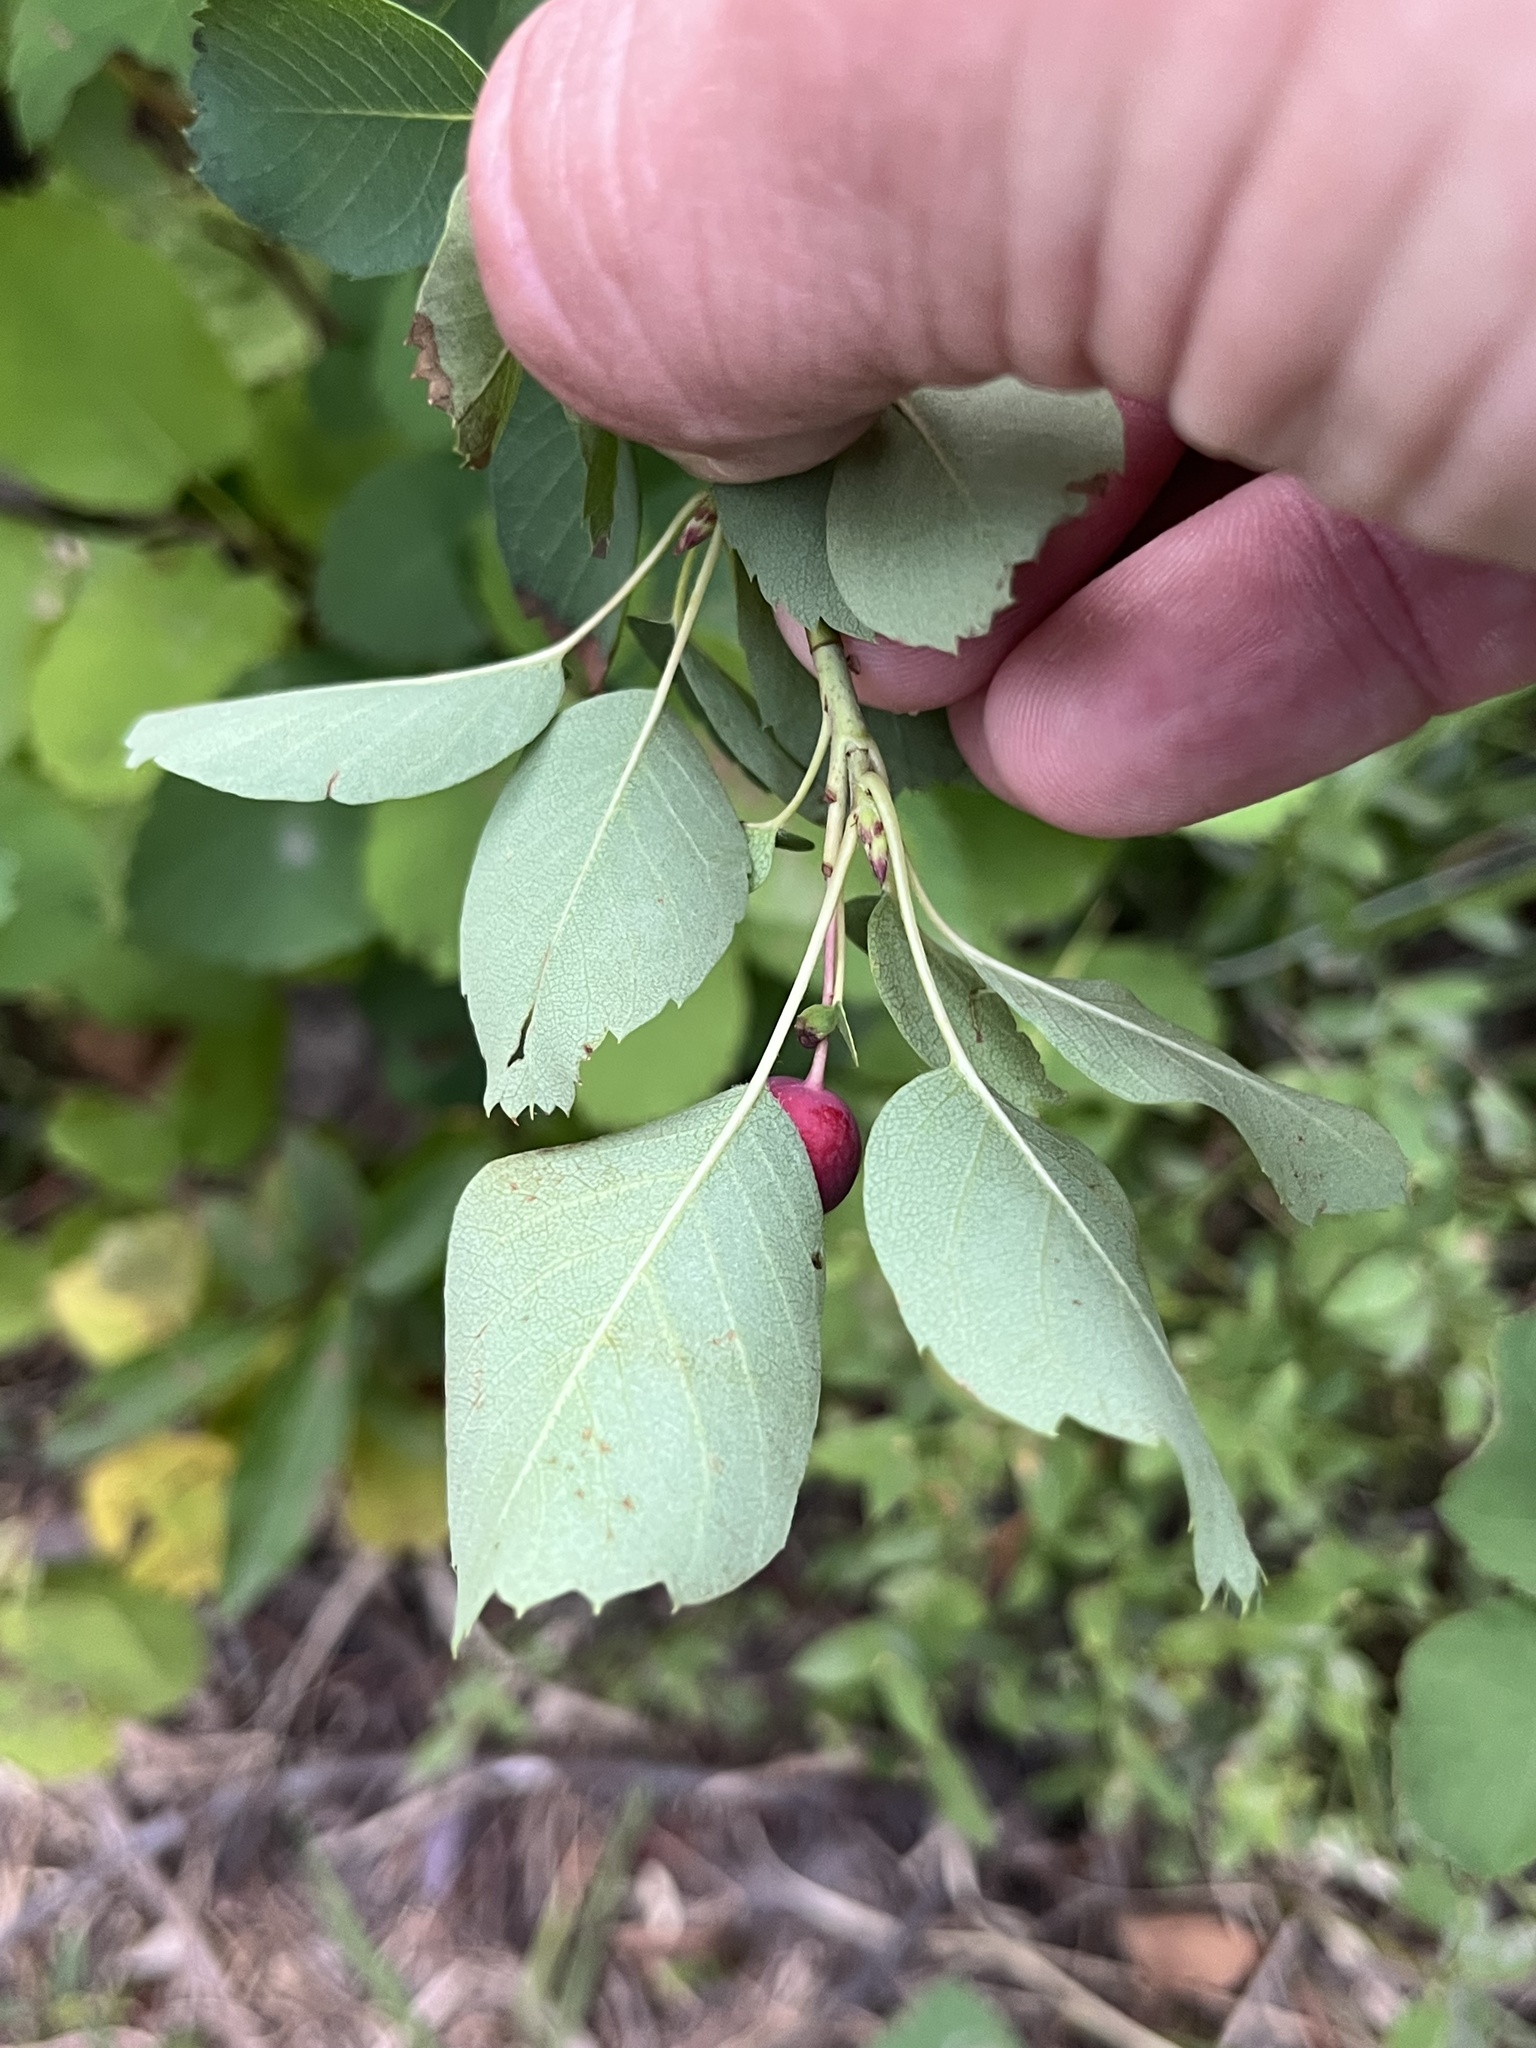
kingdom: Plantae
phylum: Tracheophyta
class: Magnoliopsida
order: Rosales
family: Rosaceae
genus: Amelanchier
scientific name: Amelanchier alnifolia
